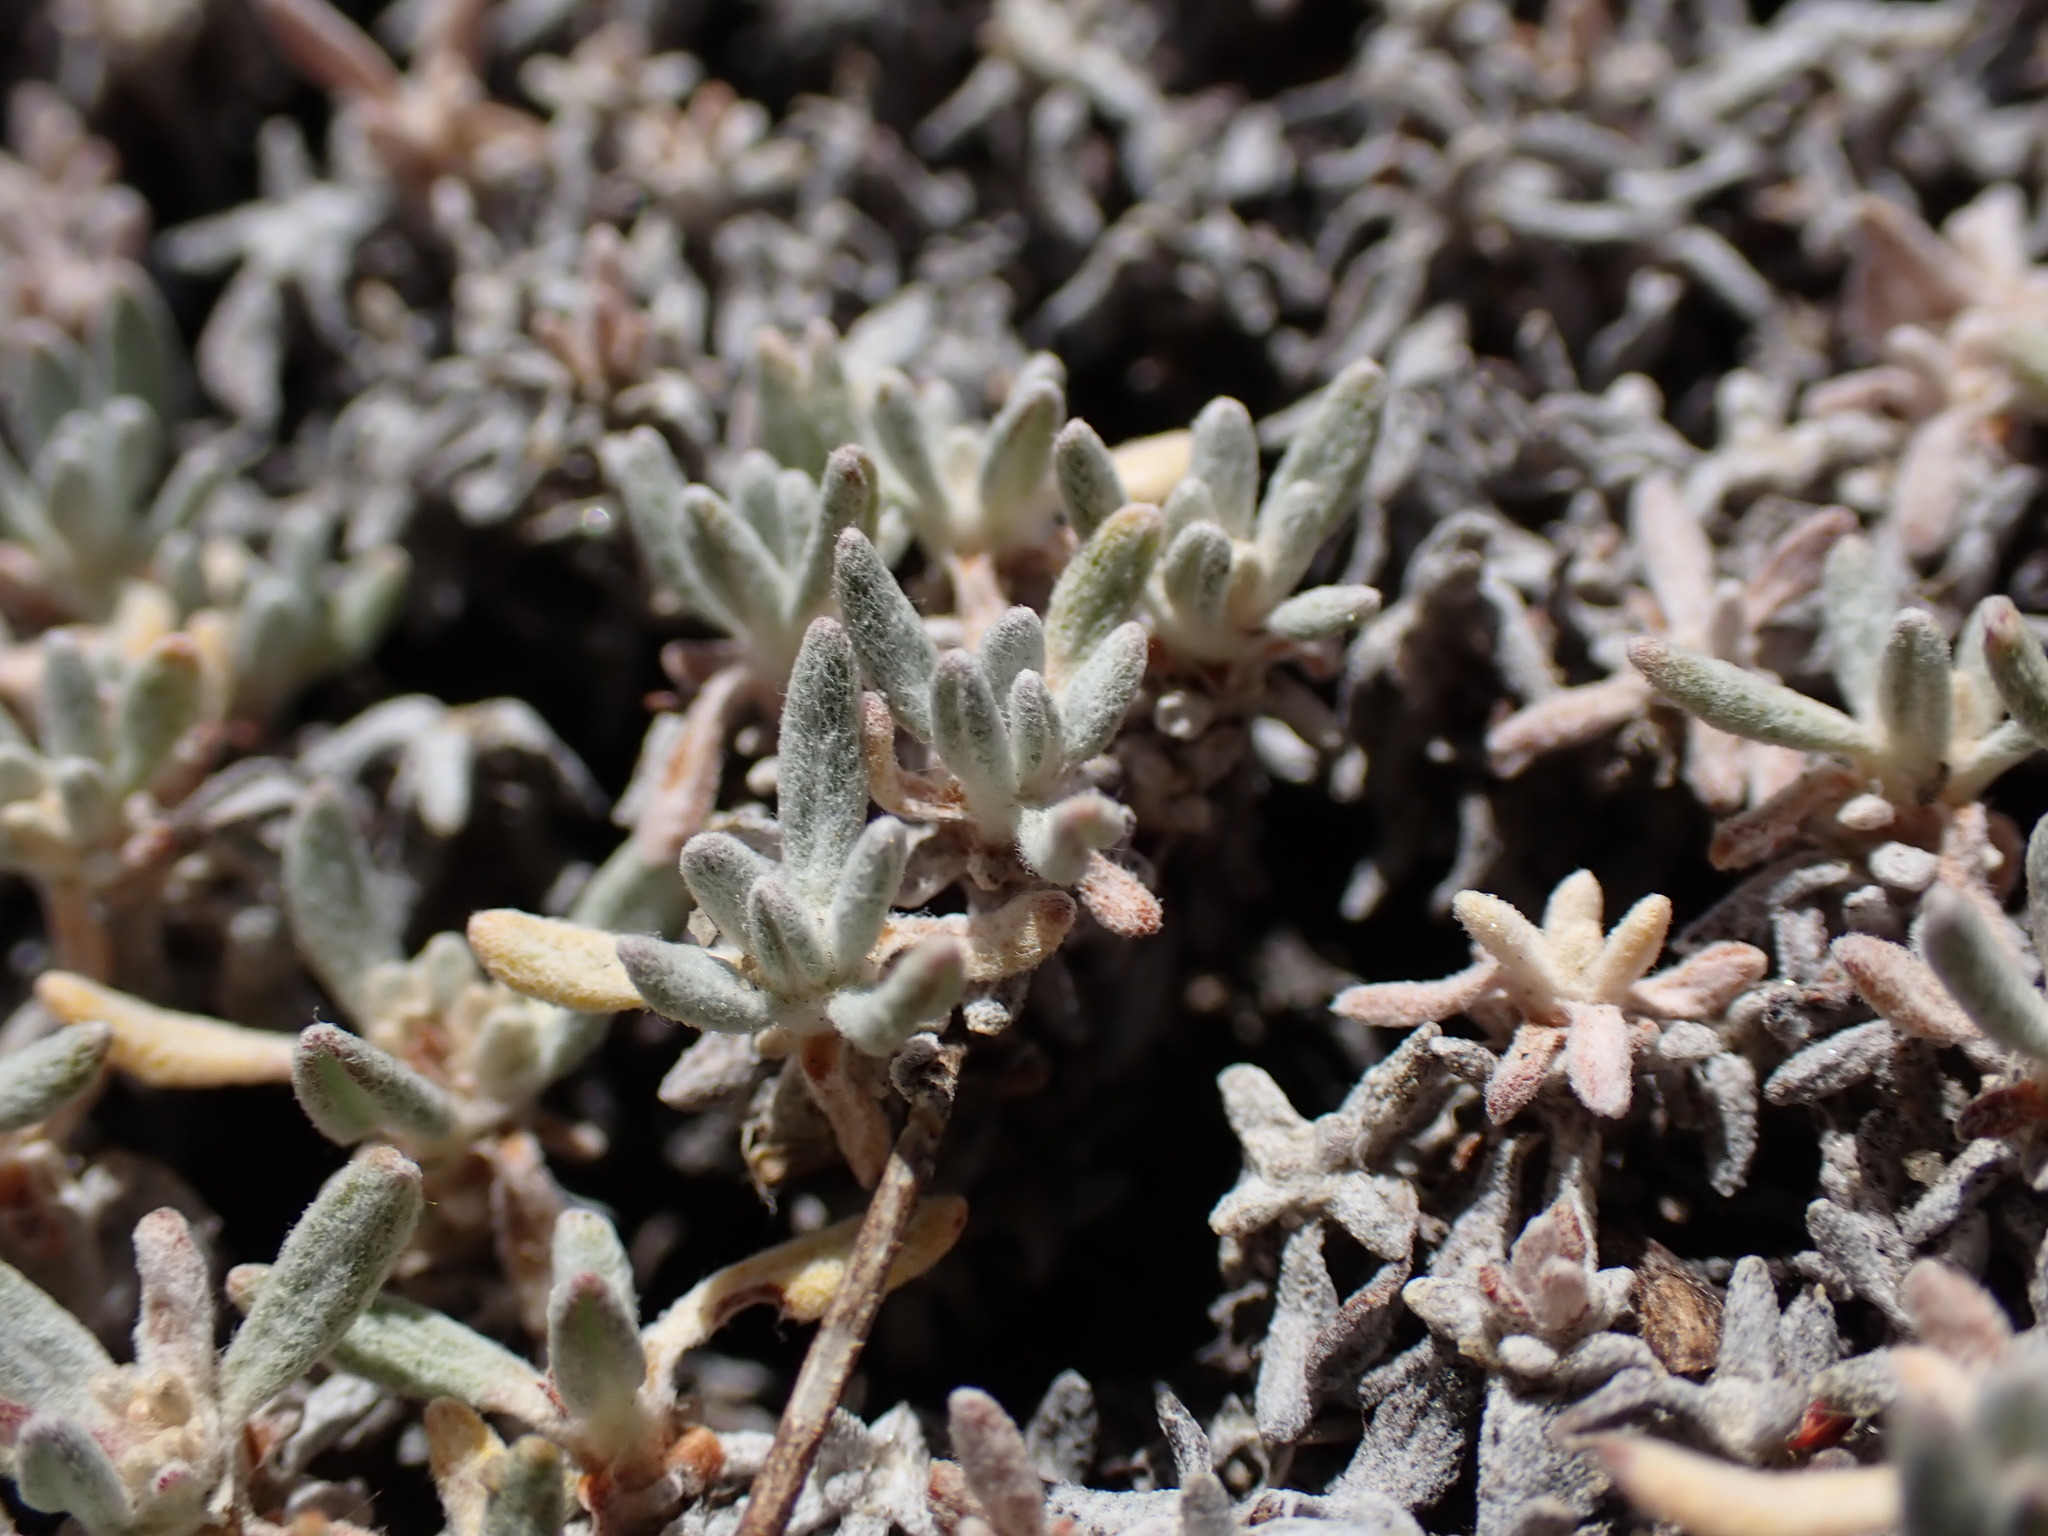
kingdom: Plantae
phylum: Tracheophyta
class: Magnoliopsida
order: Caryophyllales
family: Polygonaceae
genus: Eriogonum
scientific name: Eriogonum wrightii
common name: Bastard-sage
